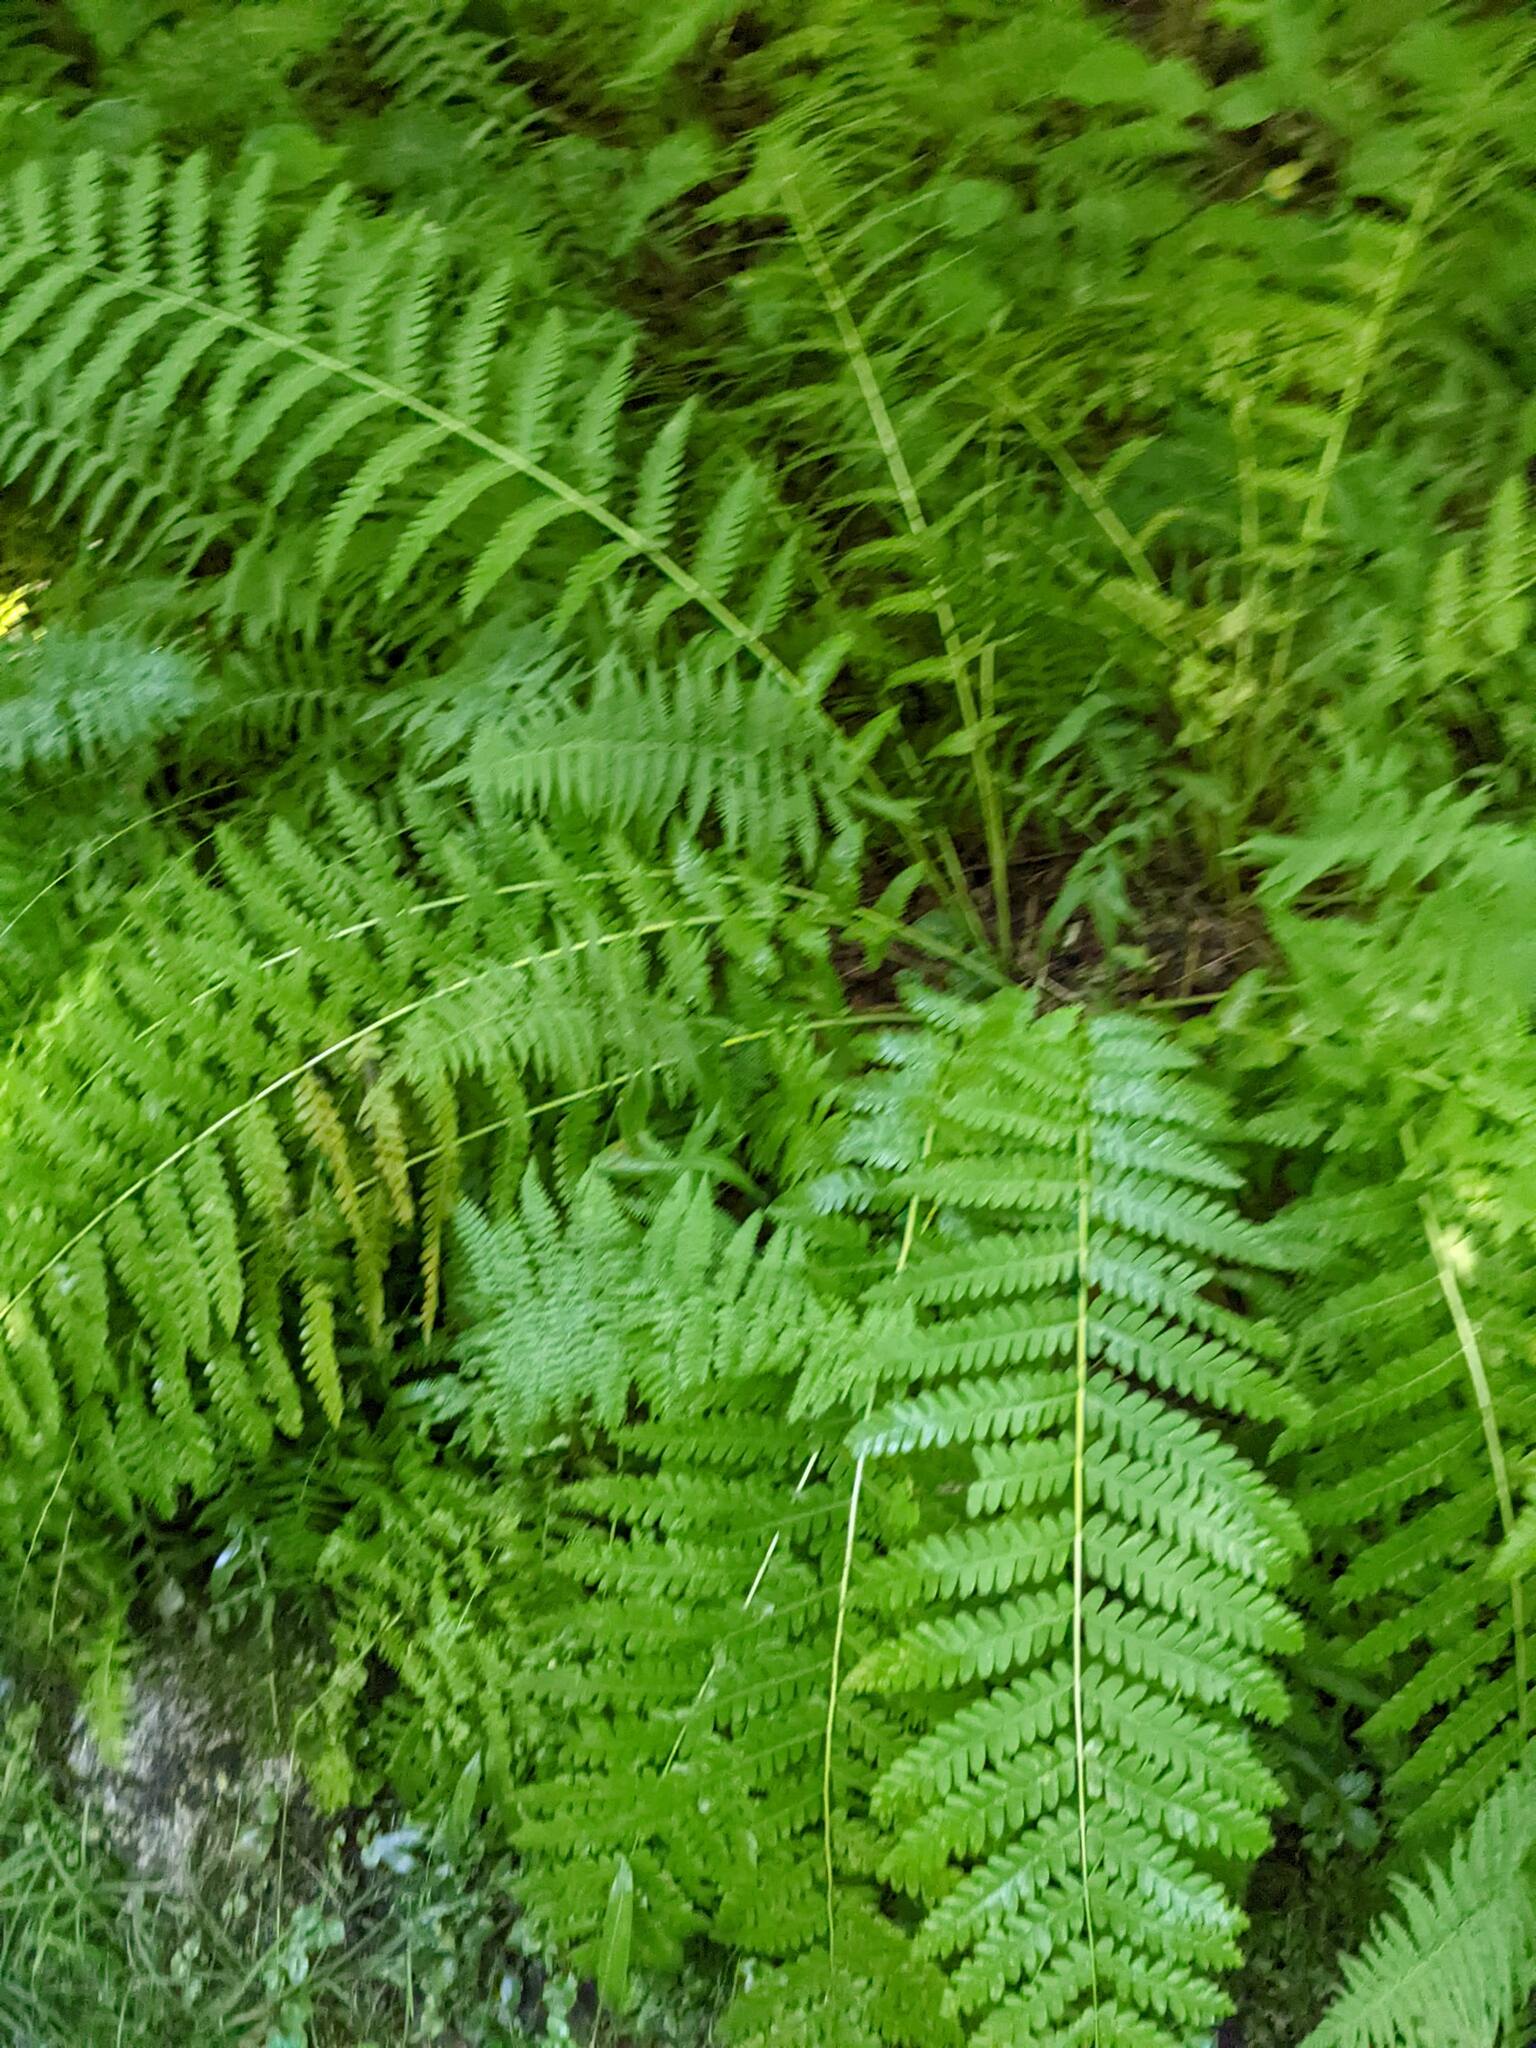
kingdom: Plantae
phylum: Tracheophyta
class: Polypodiopsida
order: Osmundales
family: Osmundaceae
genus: Claytosmunda
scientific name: Claytosmunda claytoniana
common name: Clayton's fern
